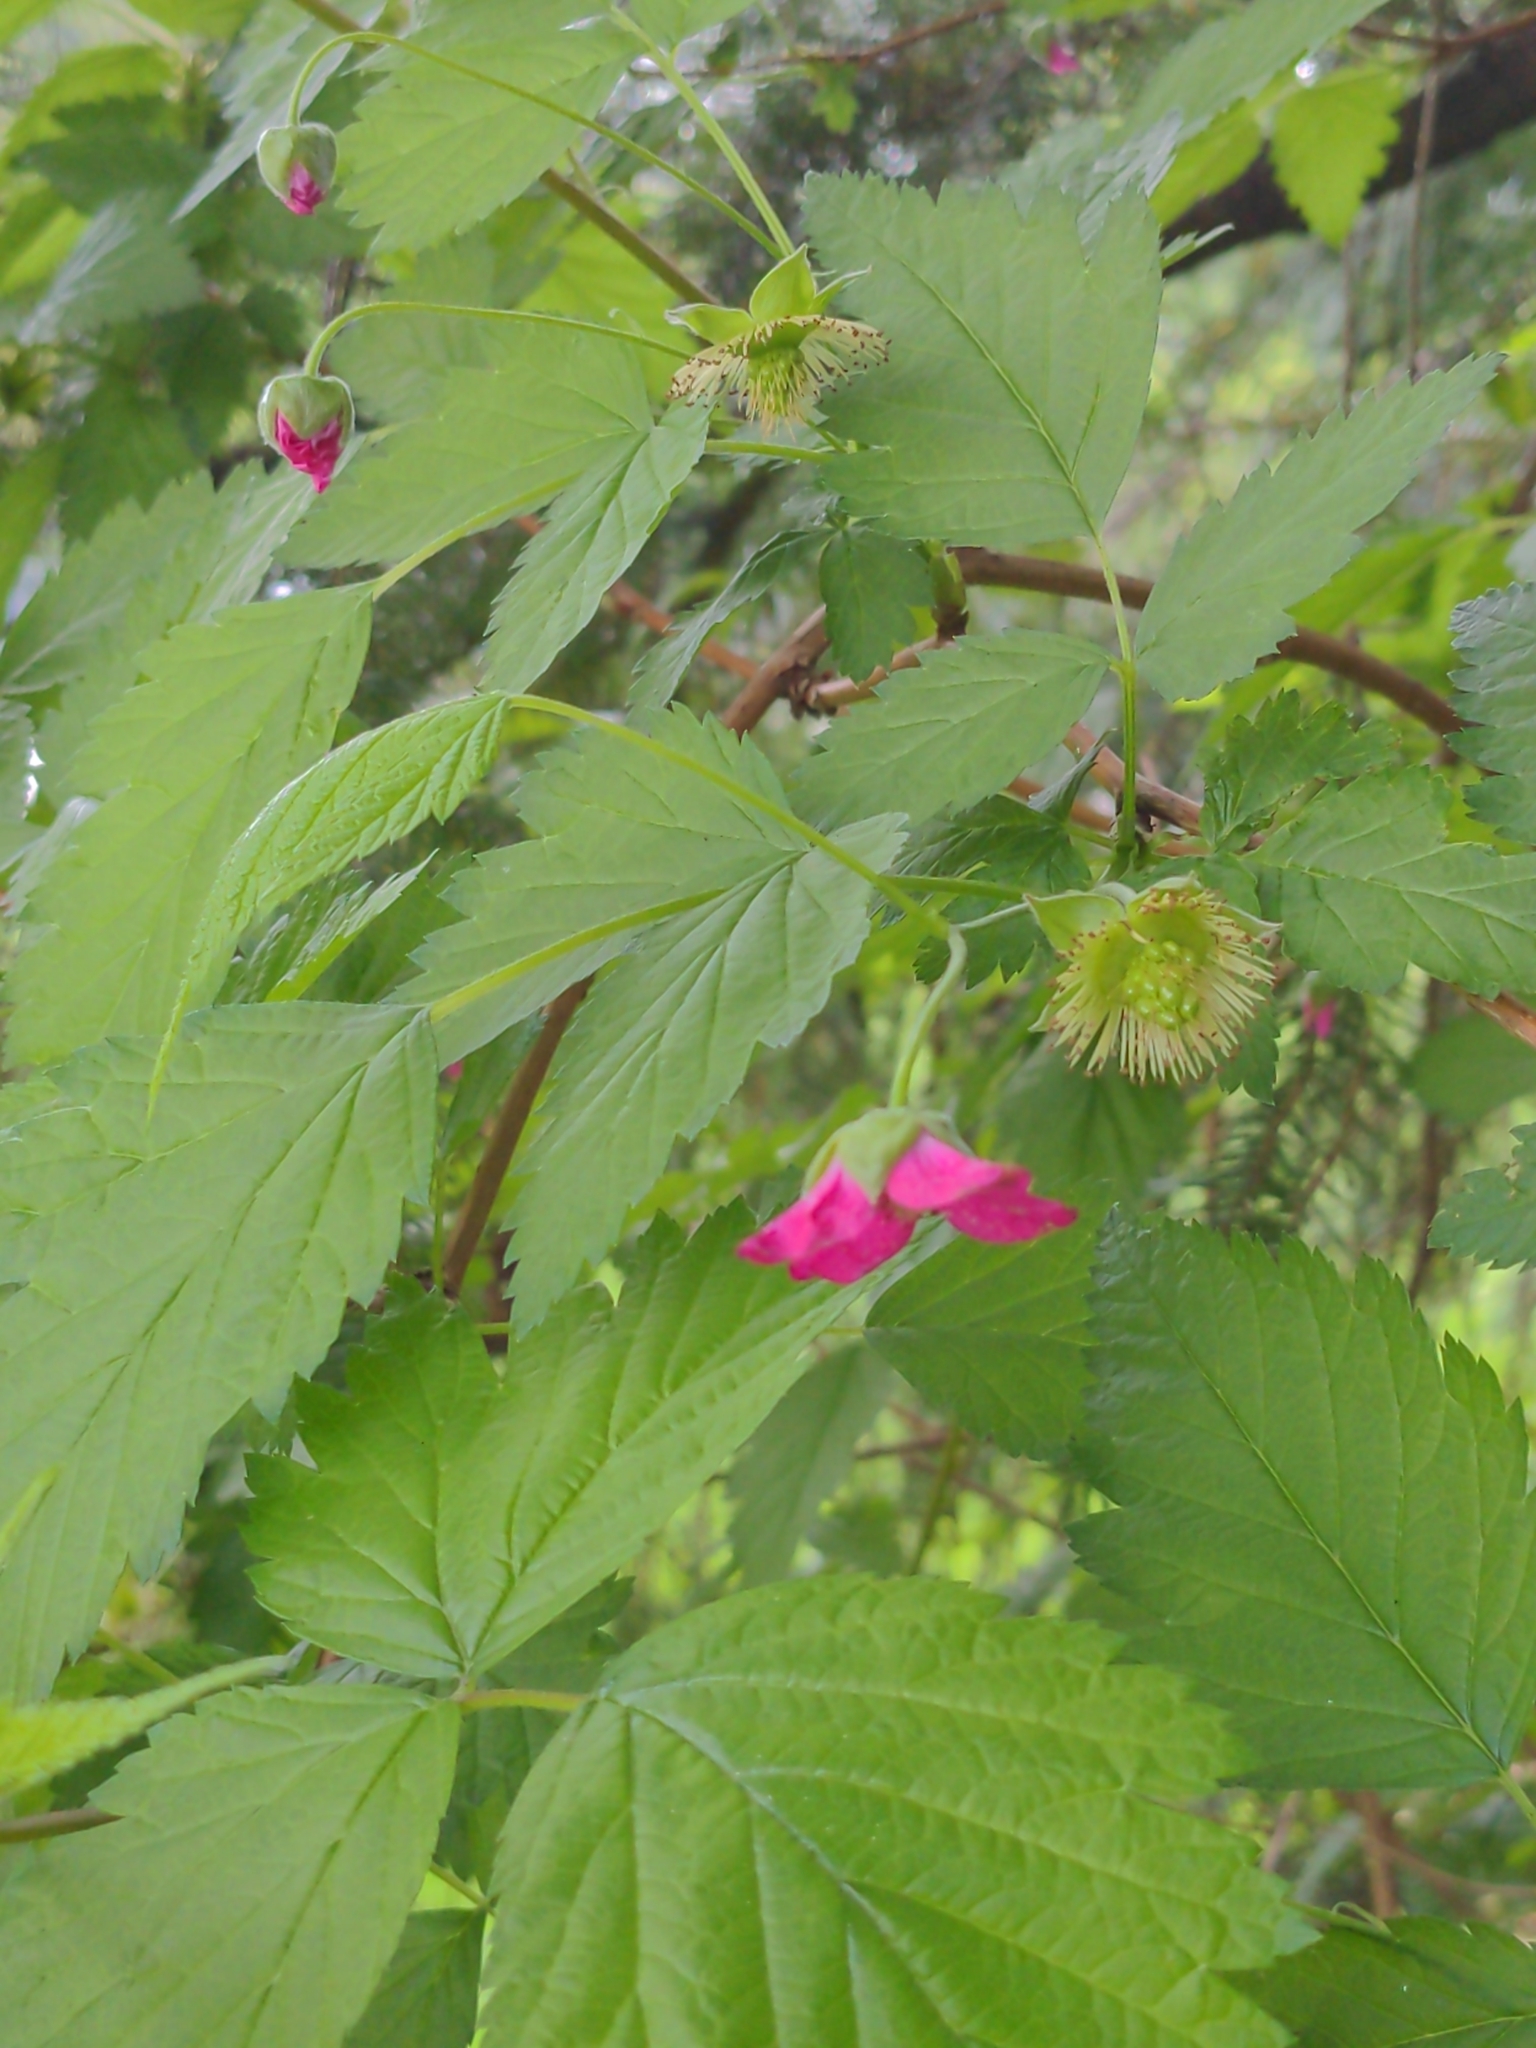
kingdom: Plantae
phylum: Tracheophyta
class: Magnoliopsida
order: Rosales
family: Rosaceae
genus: Rubus
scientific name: Rubus spectabilis
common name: Salmonberry
